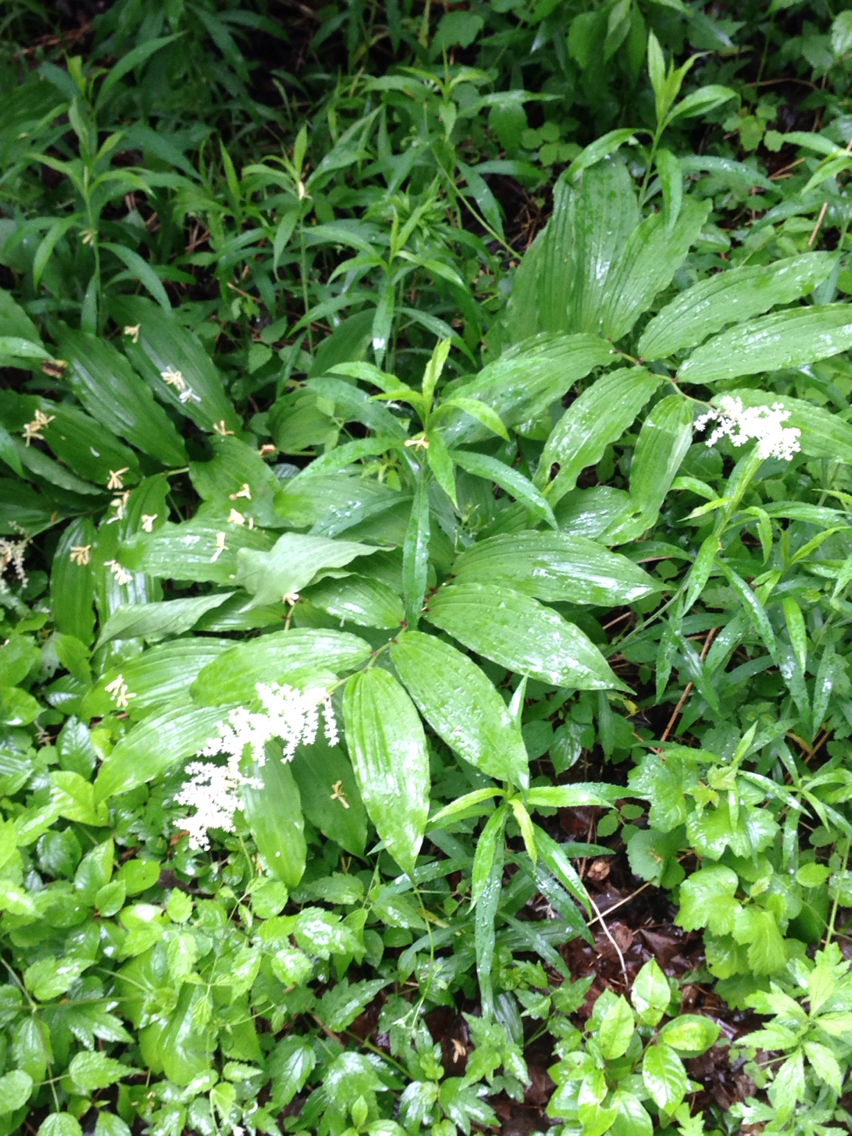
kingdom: Plantae
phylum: Tracheophyta
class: Liliopsida
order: Asparagales
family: Asparagaceae
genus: Maianthemum
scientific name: Maianthemum racemosum
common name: False spikenard
